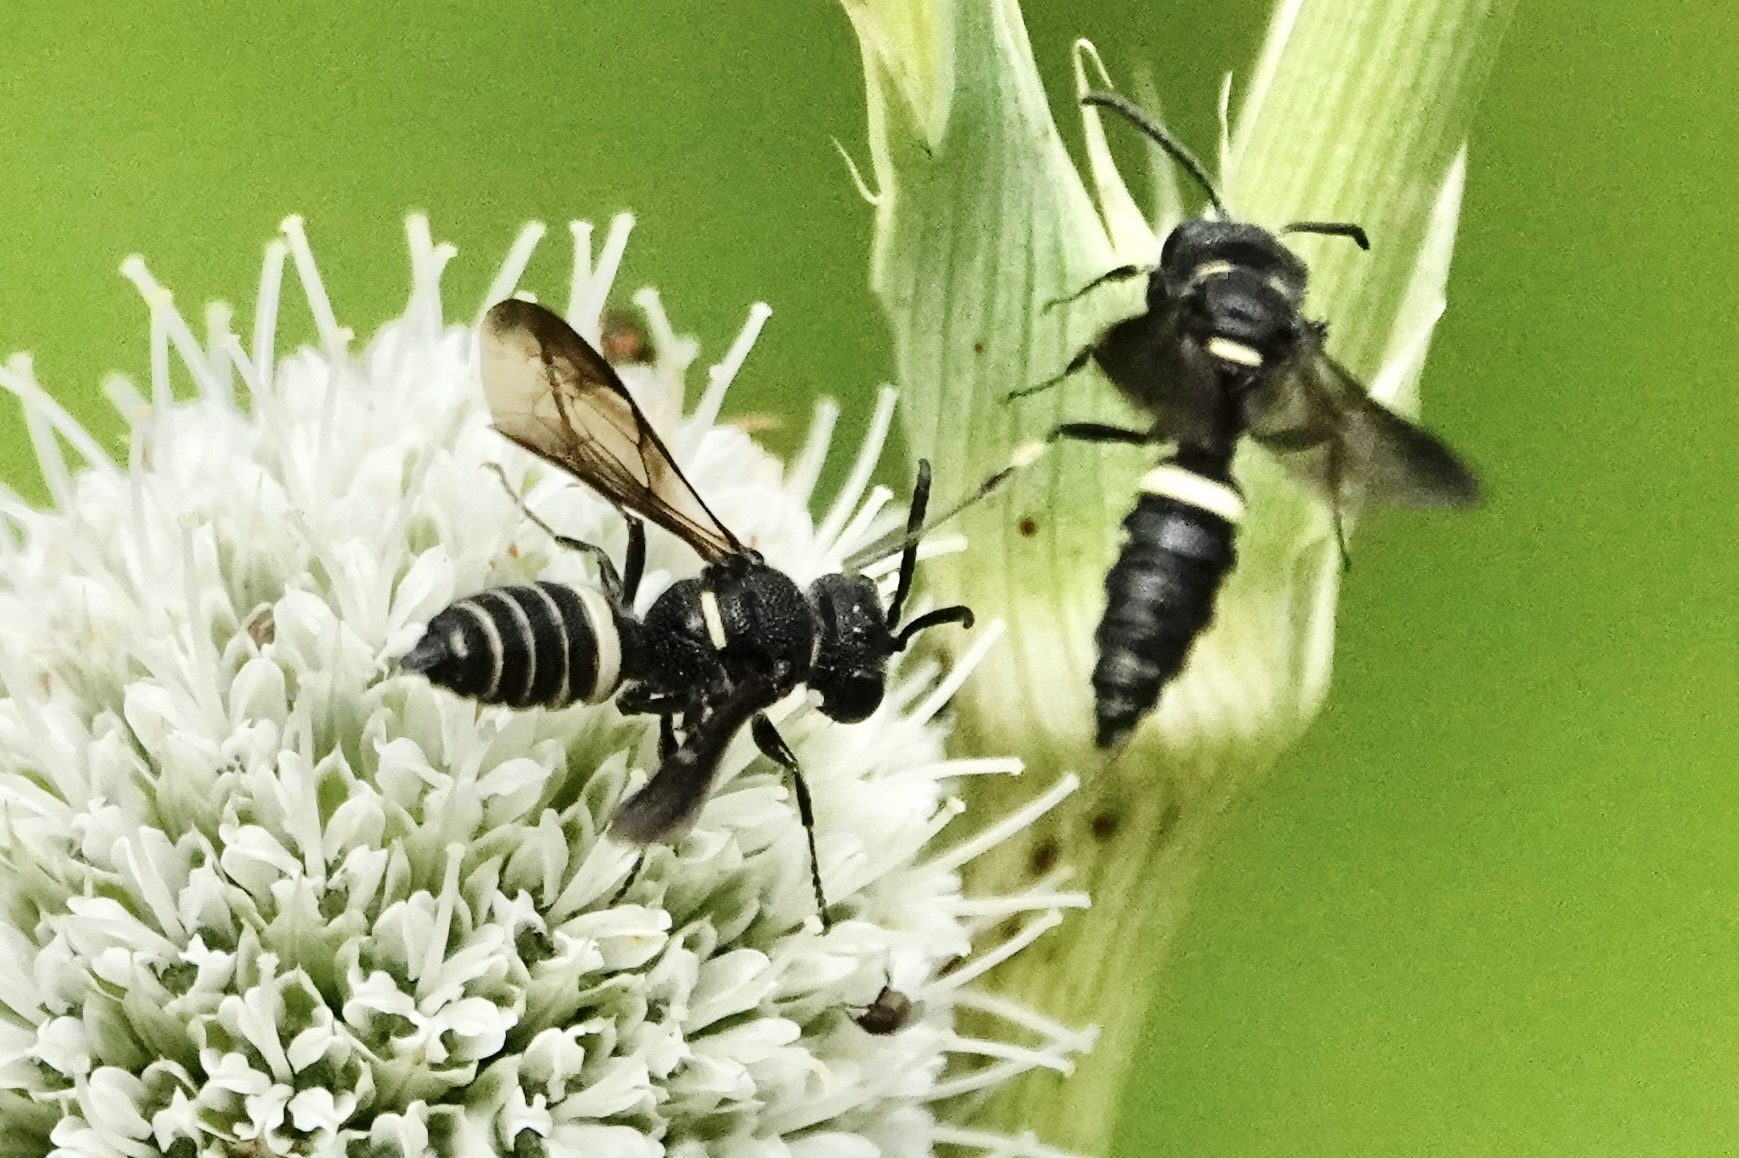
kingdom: Animalia
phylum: Arthropoda
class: Insecta
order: Hymenoptera
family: Crabronidae
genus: Cerceris
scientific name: Cerceris fumipennis
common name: Smokey-winged beetle bandit wasp
